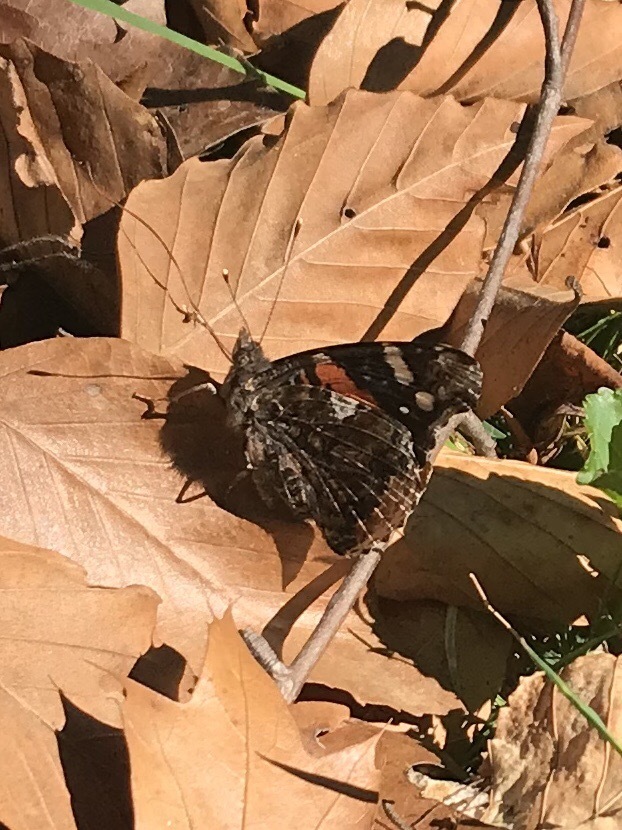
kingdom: Animalia
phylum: Arthropoda
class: Insecta
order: Lepidoptera
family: Nymphalidae
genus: Vanessa
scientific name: Vanessa atalanta
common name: Red admiral
